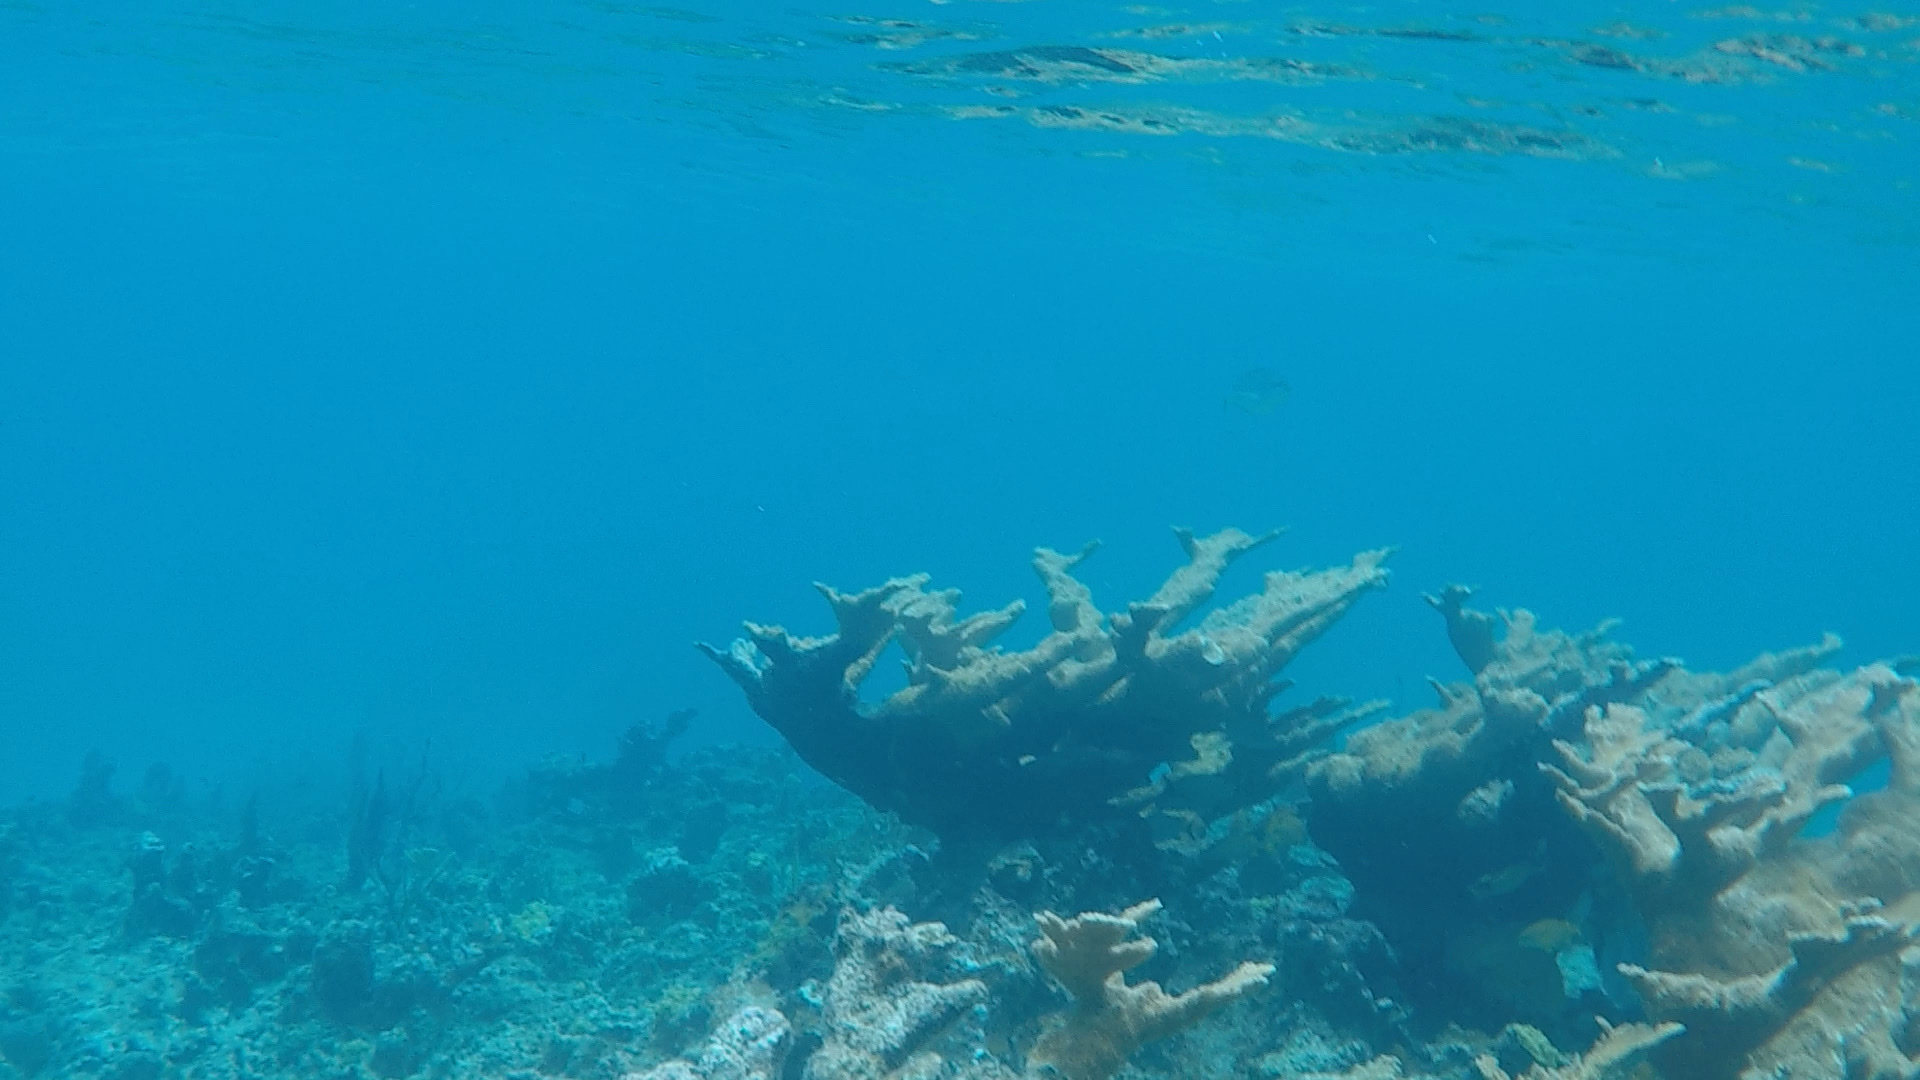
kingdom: Animalia
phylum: Cnidaria
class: Anthozoa
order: Scleractinia
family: Acroporidae
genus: Acropora
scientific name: Acropora palmata
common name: Elkhorn coral
